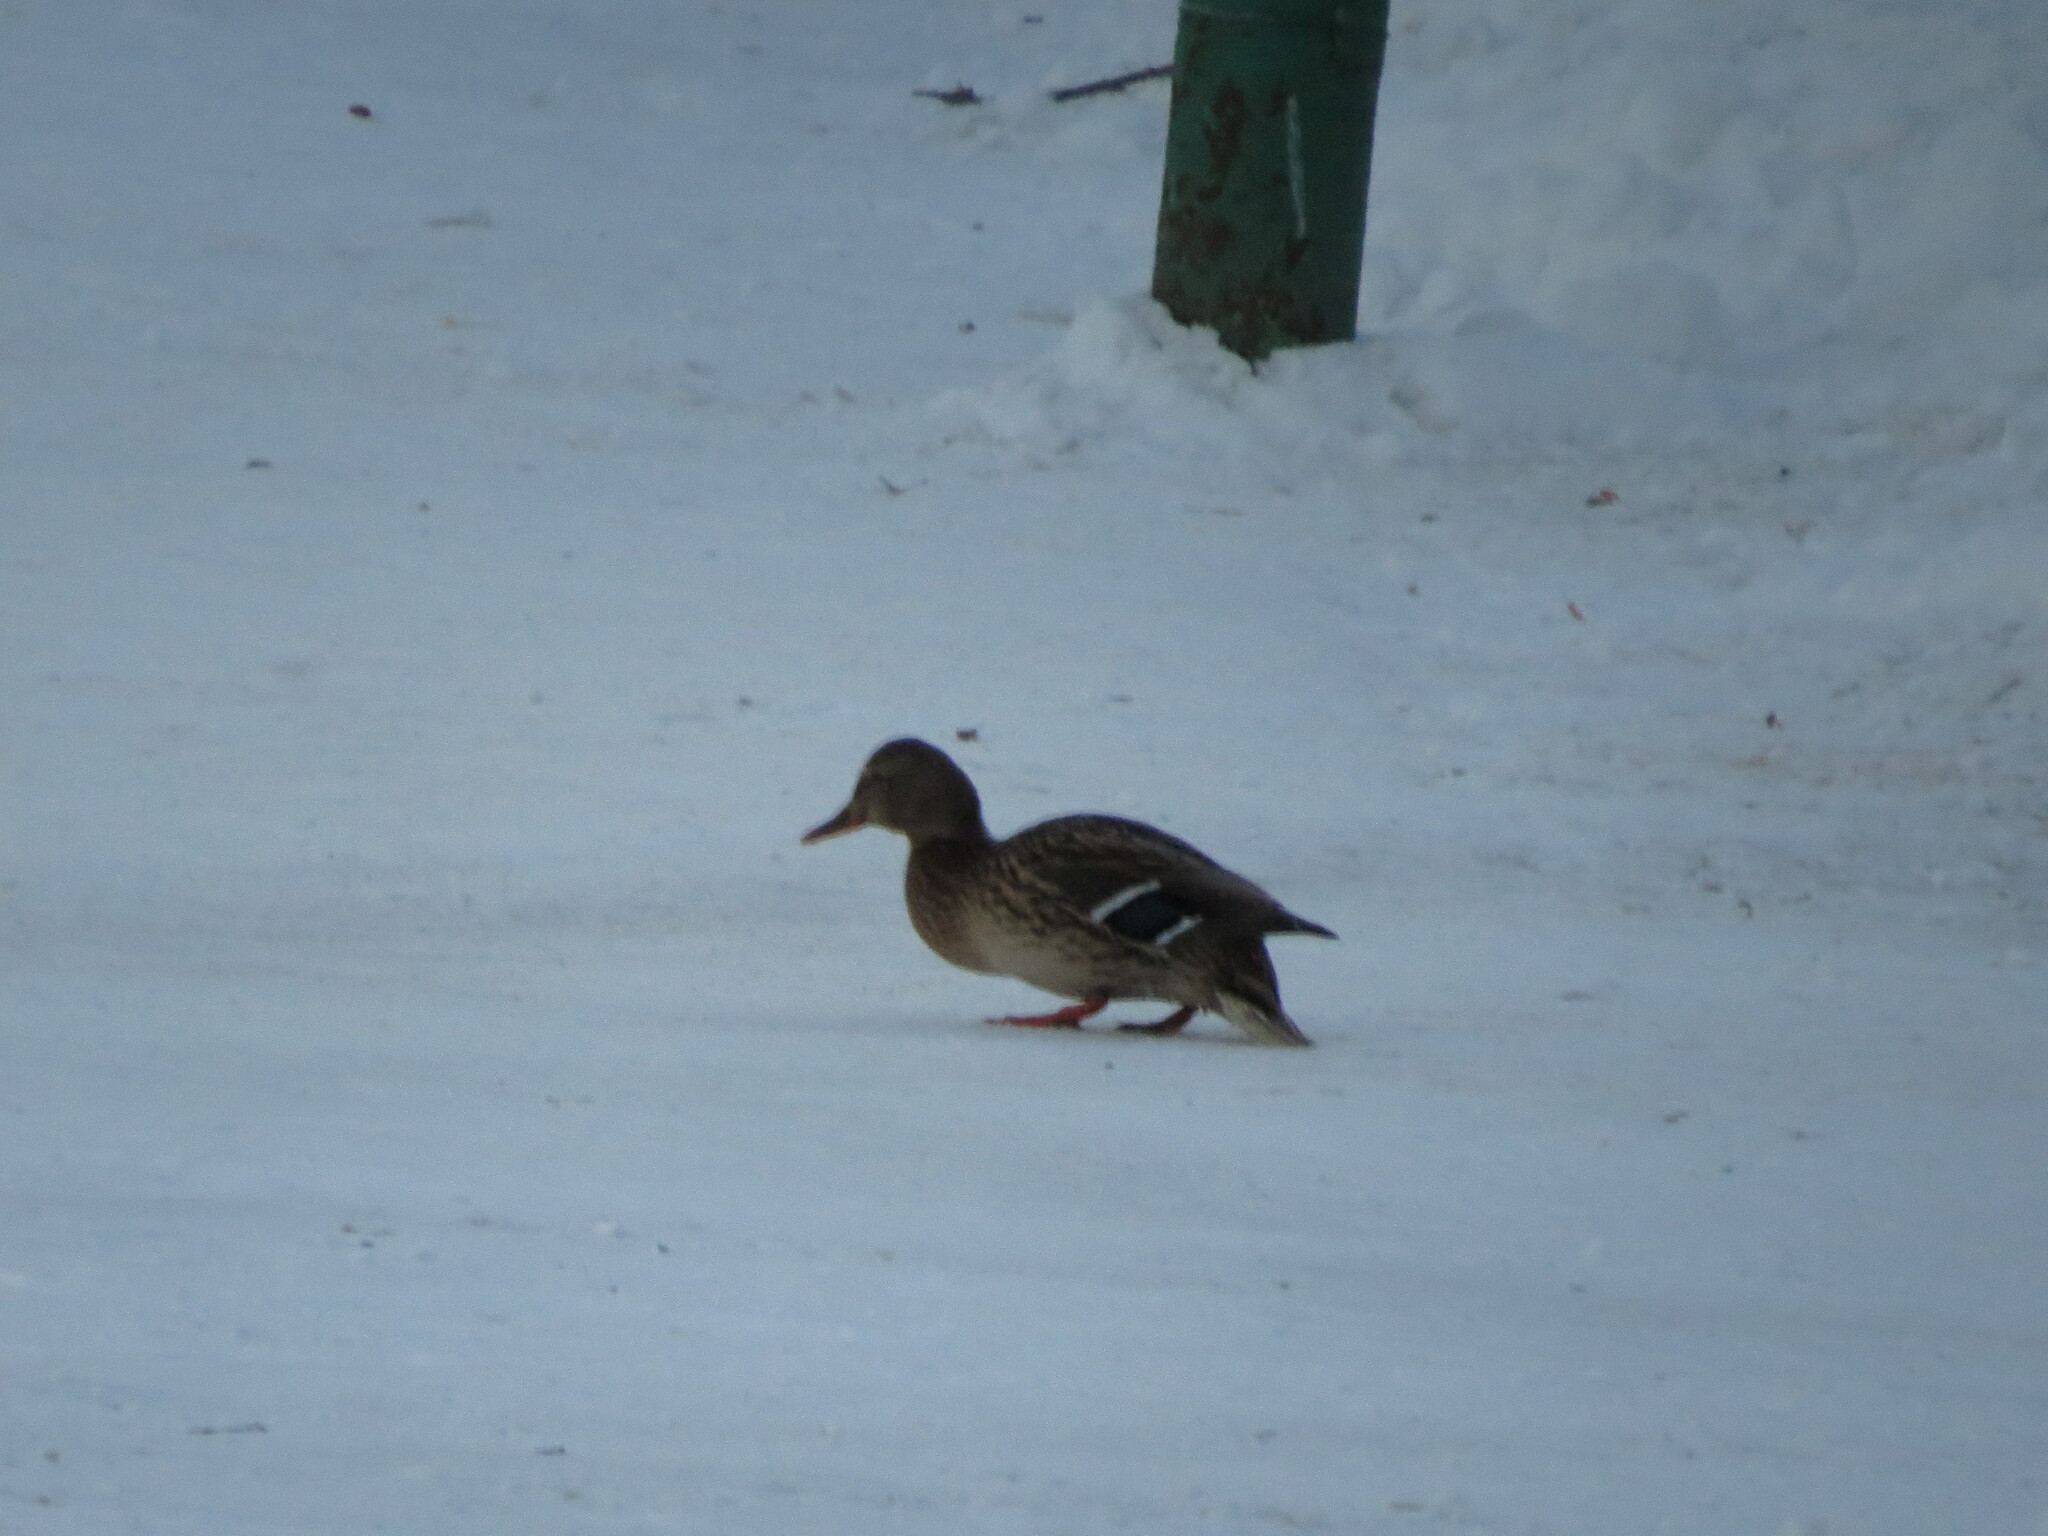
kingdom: Animalia
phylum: Chordata
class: Aves
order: Anseriformes
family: Anatidae
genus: Anas
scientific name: Anas platyrhynchos
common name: Mallard
